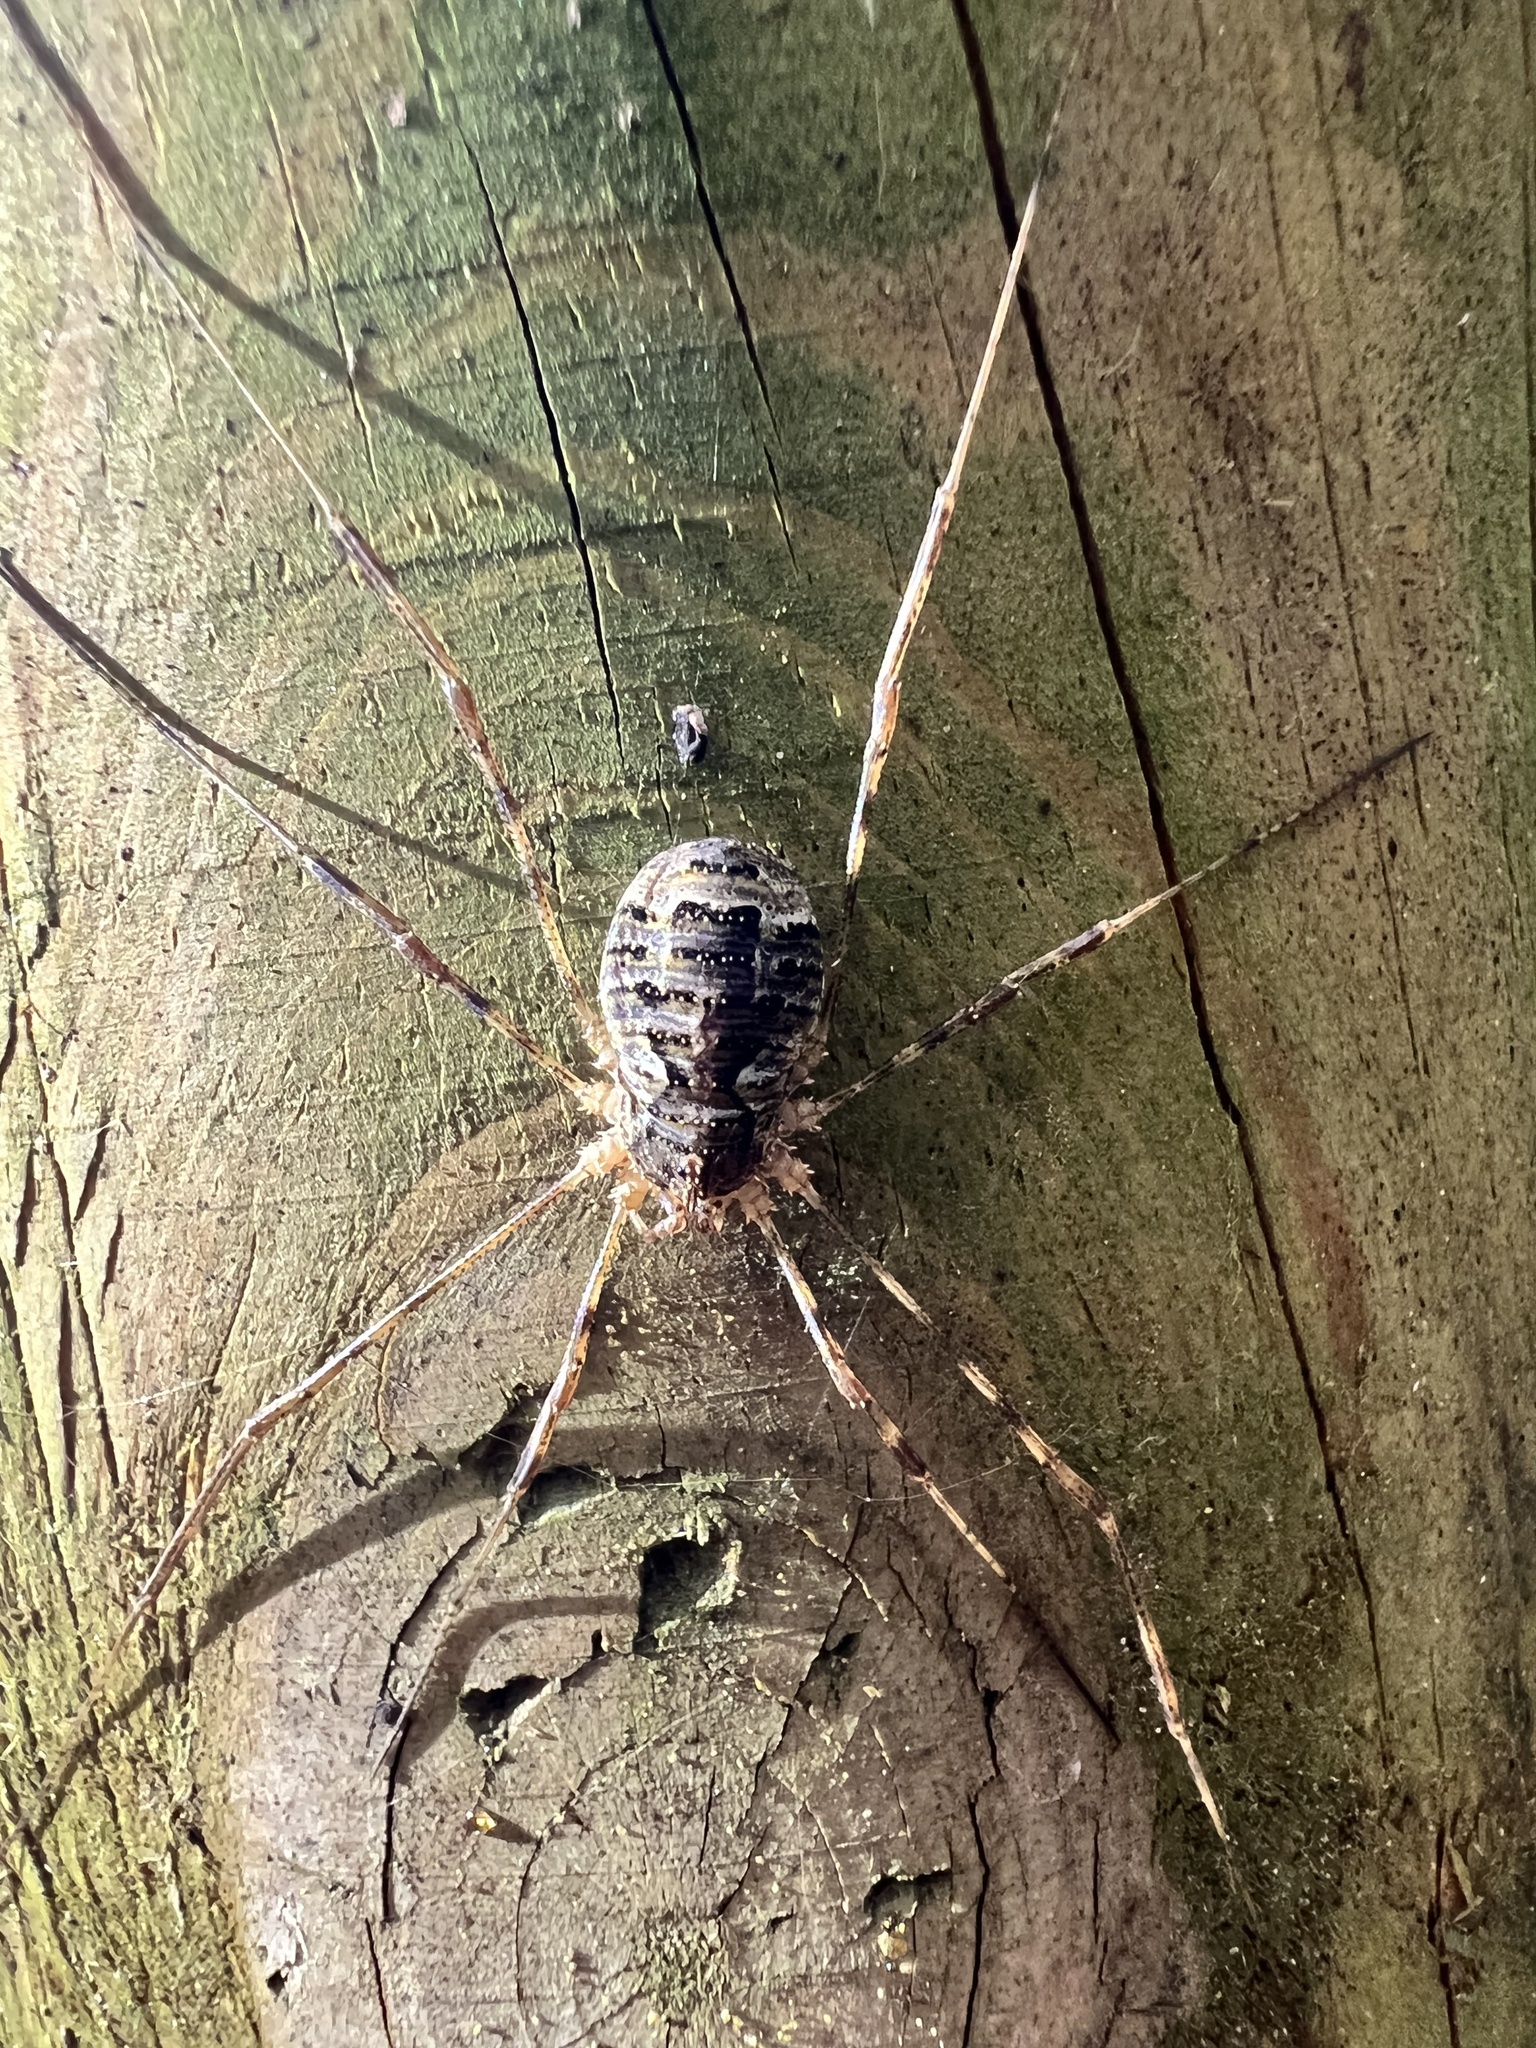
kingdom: Animalia
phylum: Arthropoda
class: Arachnida
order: Opiliones
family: Phalangiidae
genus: Lacinius
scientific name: Lacinius dentiger
